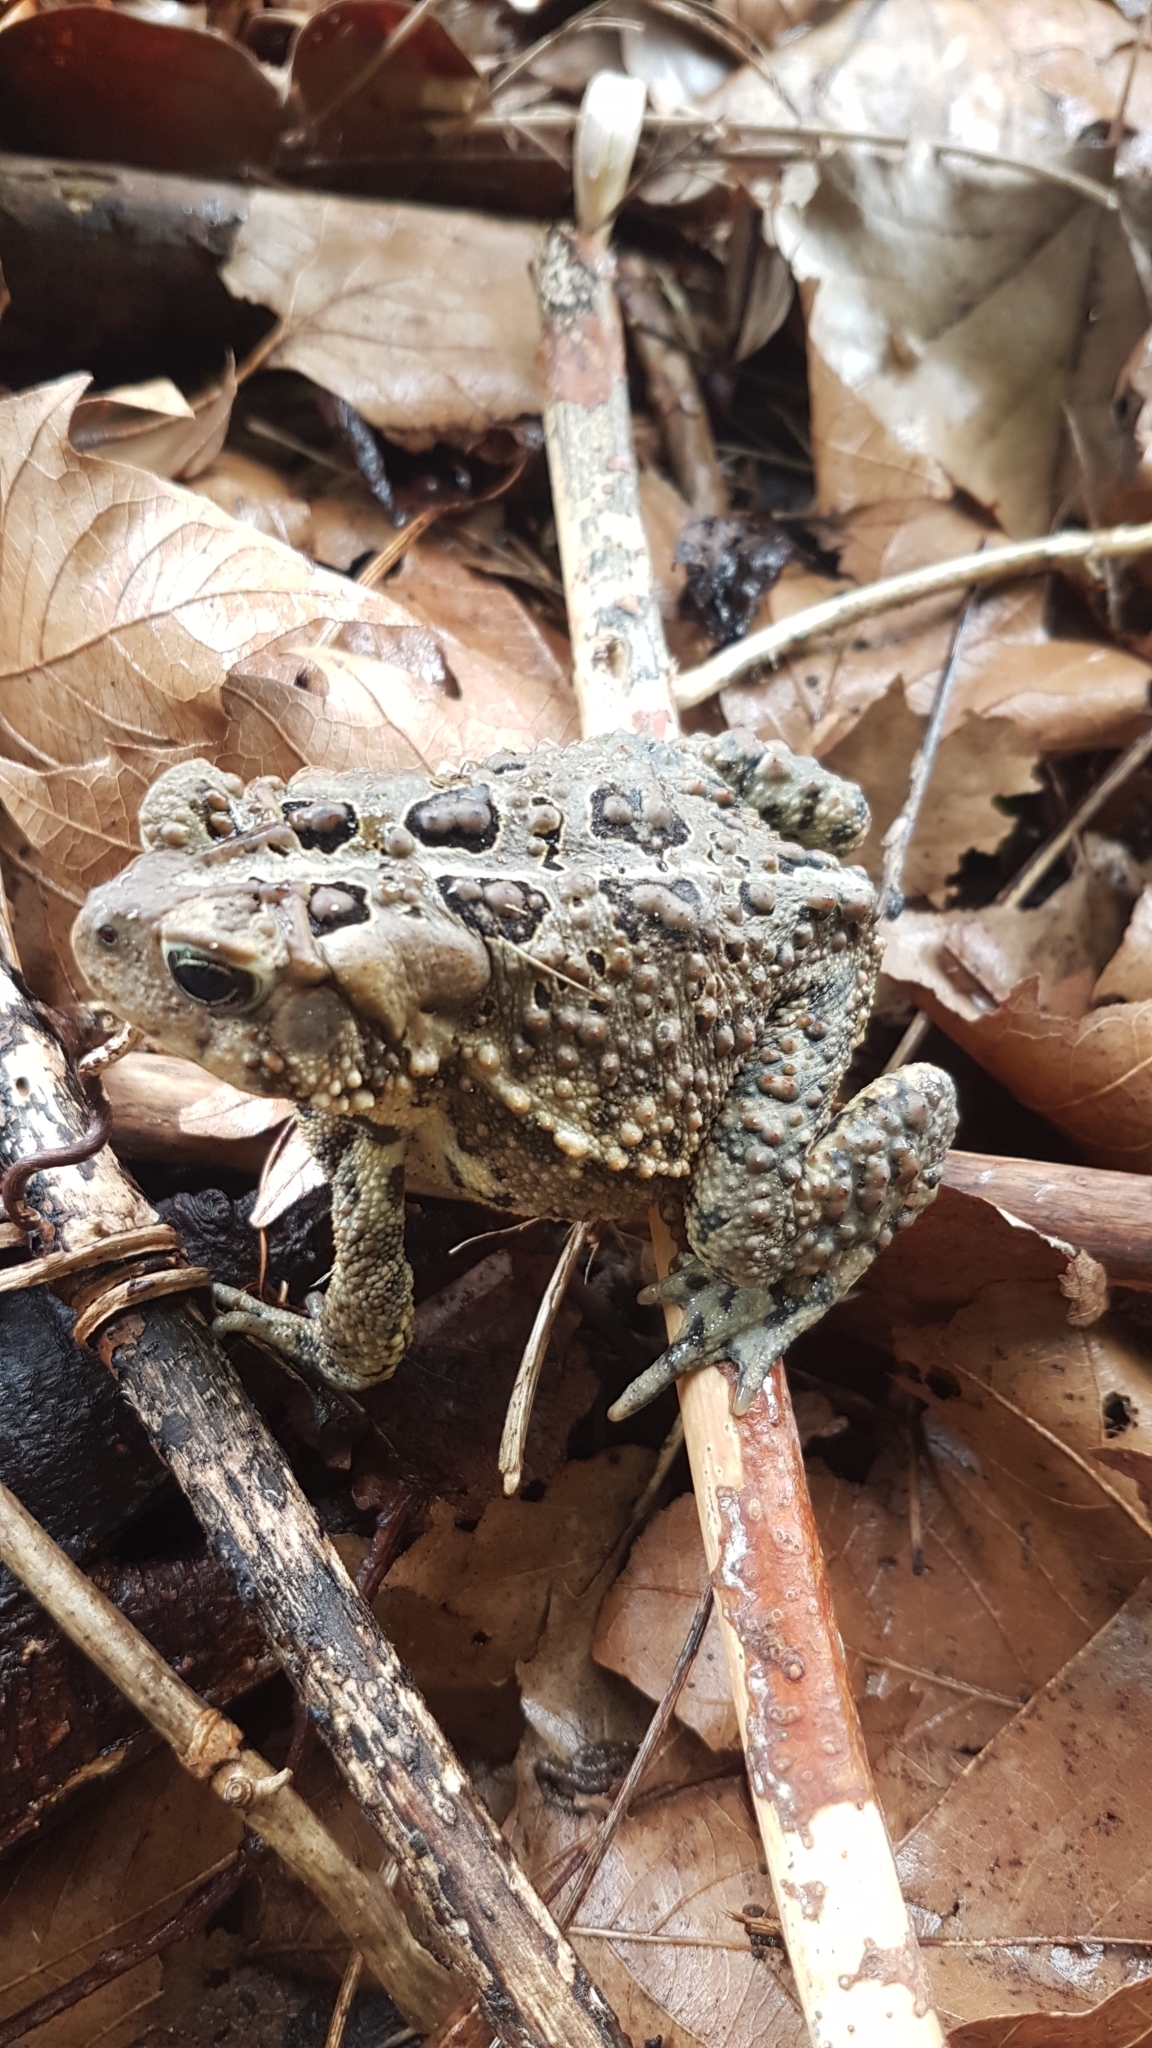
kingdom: Animalia
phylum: Chordata
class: Amphibia
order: Anura
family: Bufonidae
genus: Anaxyrus
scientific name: Anaxyrus americanus
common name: American toad
